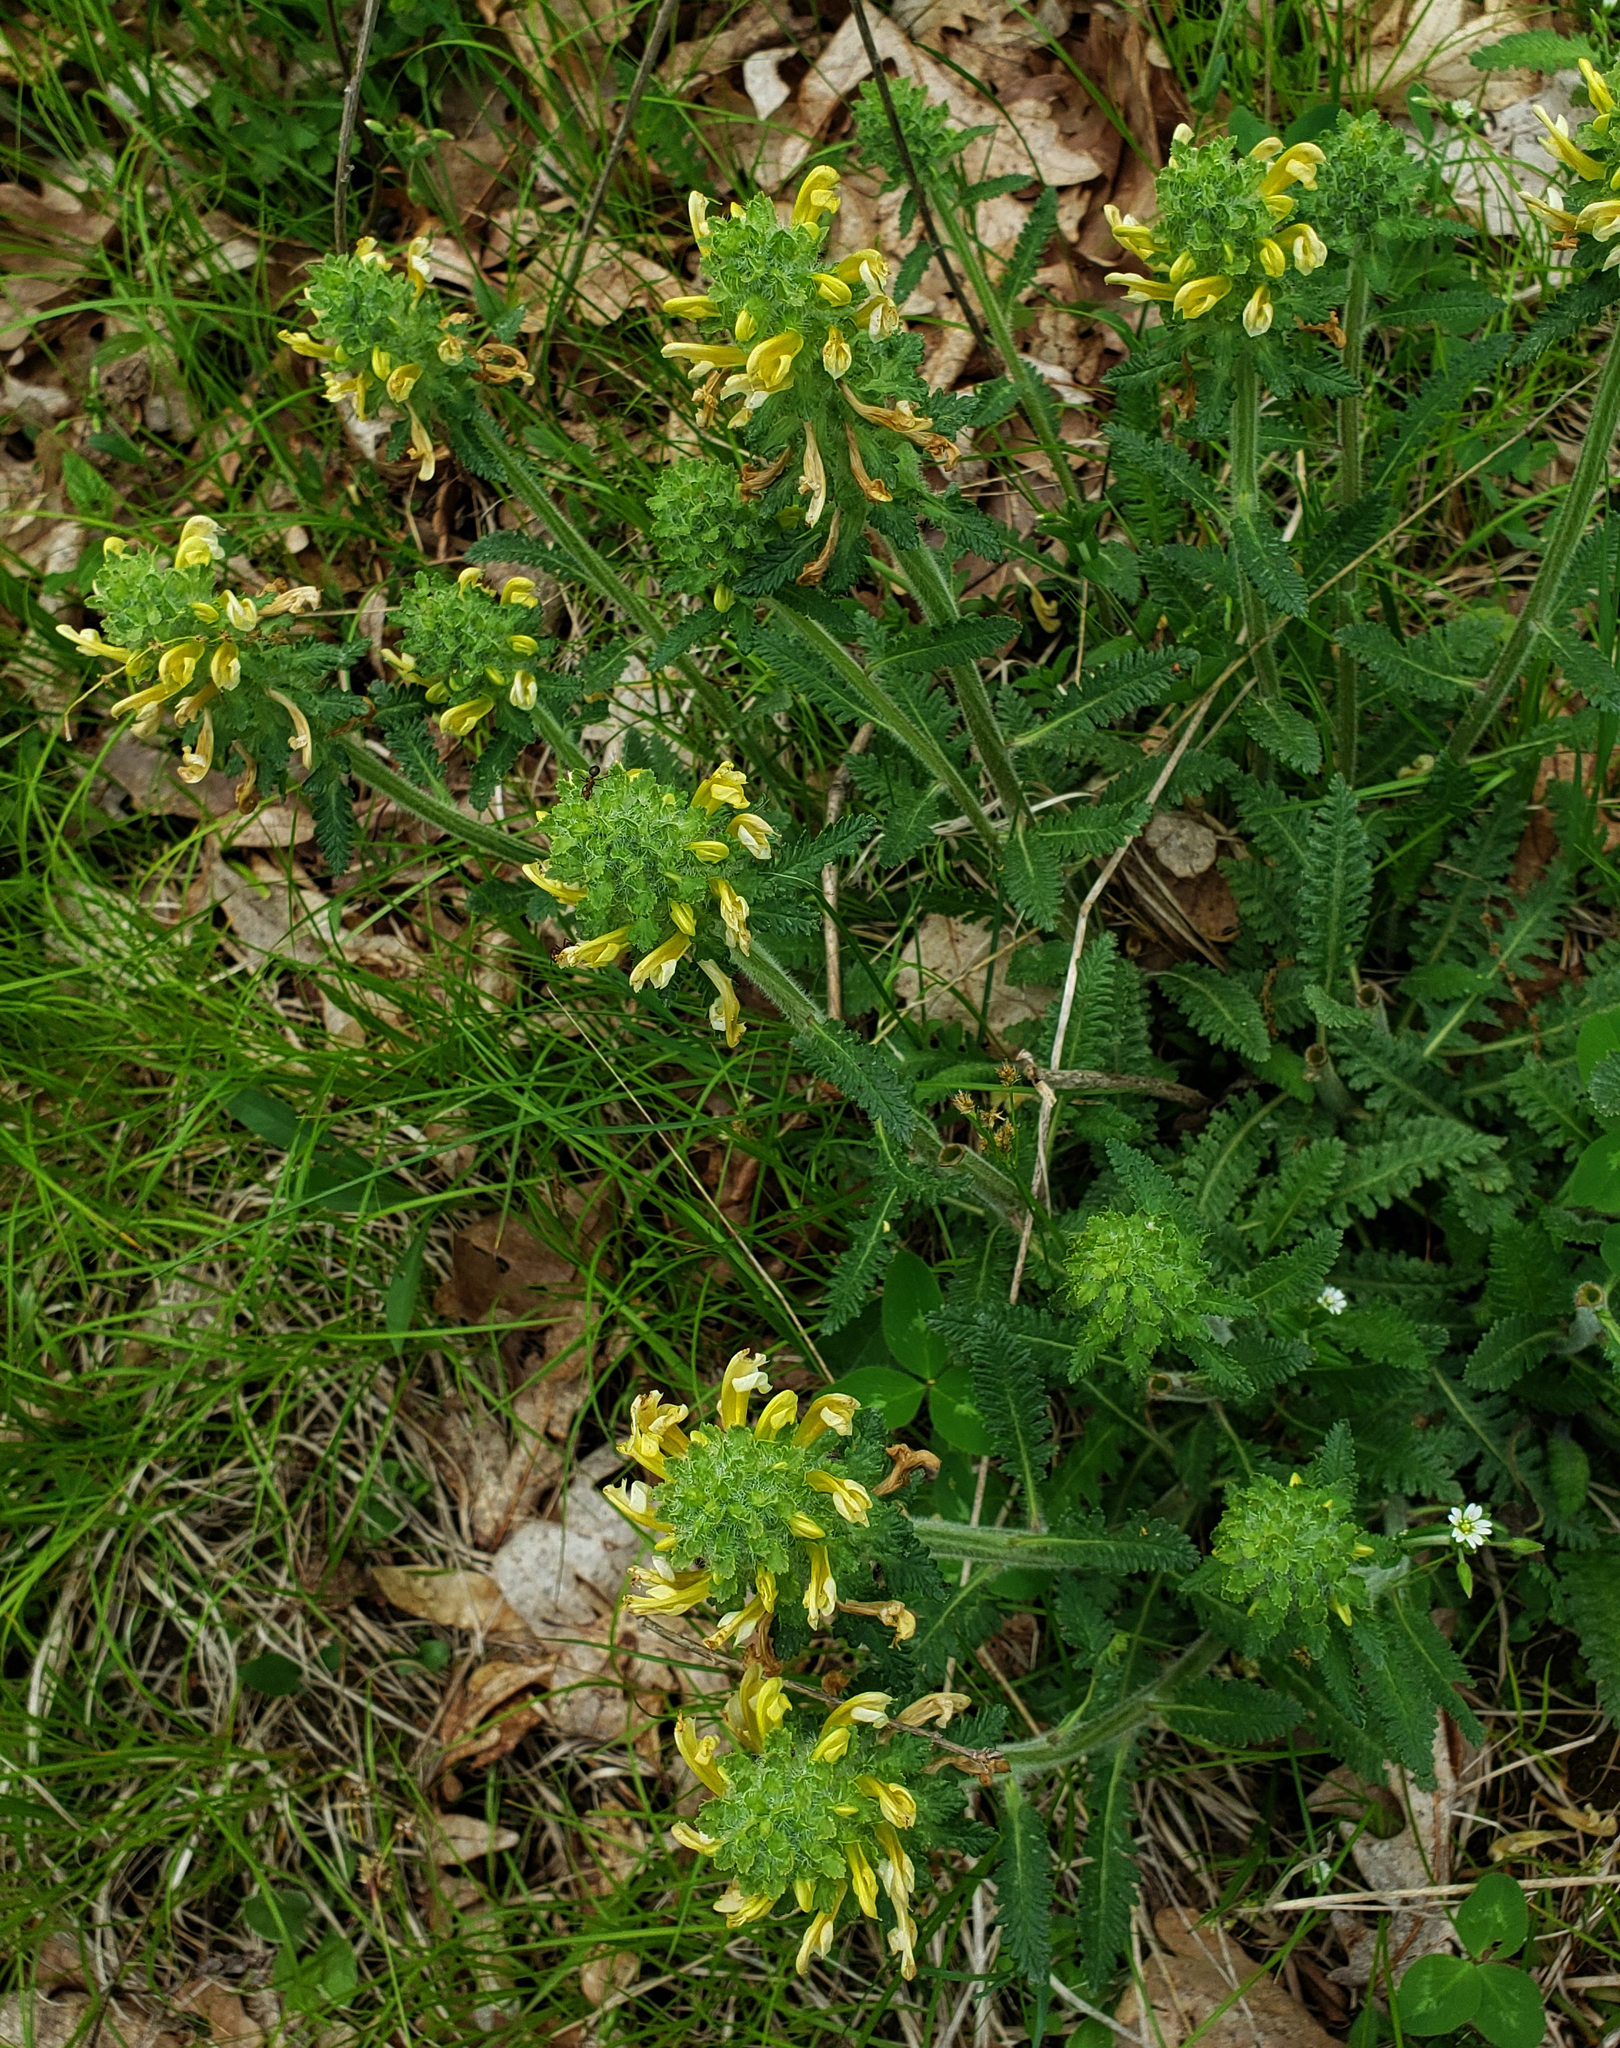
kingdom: Plantae
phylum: Tracheophyta
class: Magnoliopsida
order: Lamiales
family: Orobanchaceae
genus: Pedicularis
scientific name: Pedicularis canadensis
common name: Early lousewort
